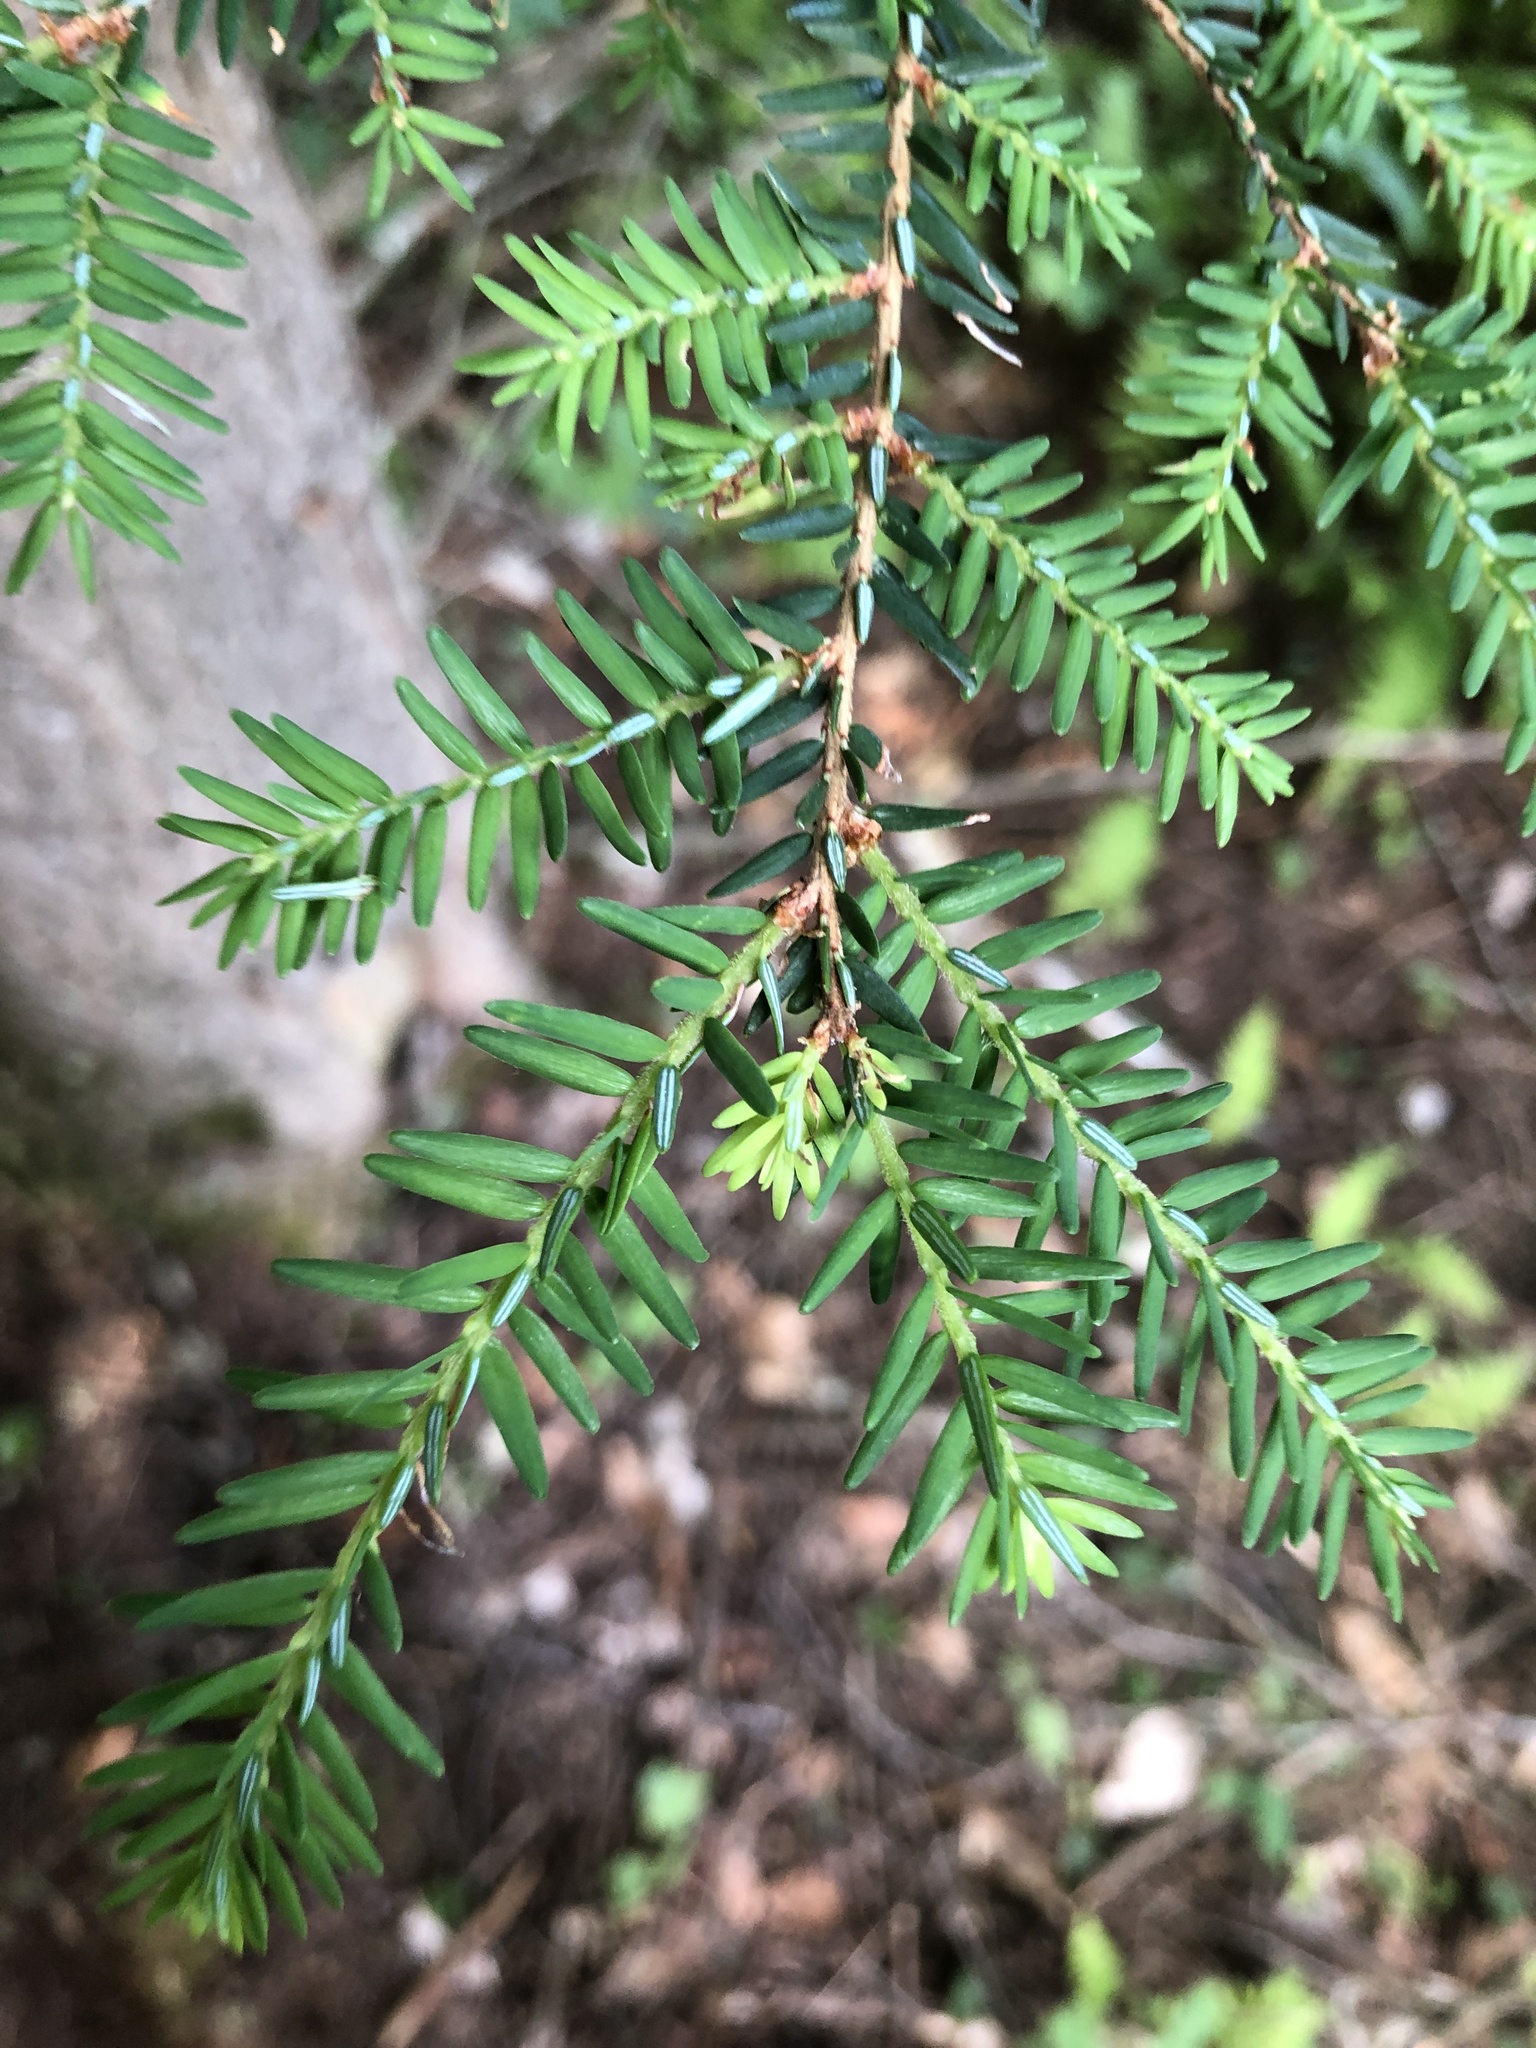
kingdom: Plantae
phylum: Tracheophyta
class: Pinopsida
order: Pinales
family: Pinaceae
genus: Tsuga
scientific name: Tsuga canadensis
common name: Eastern hemlock
